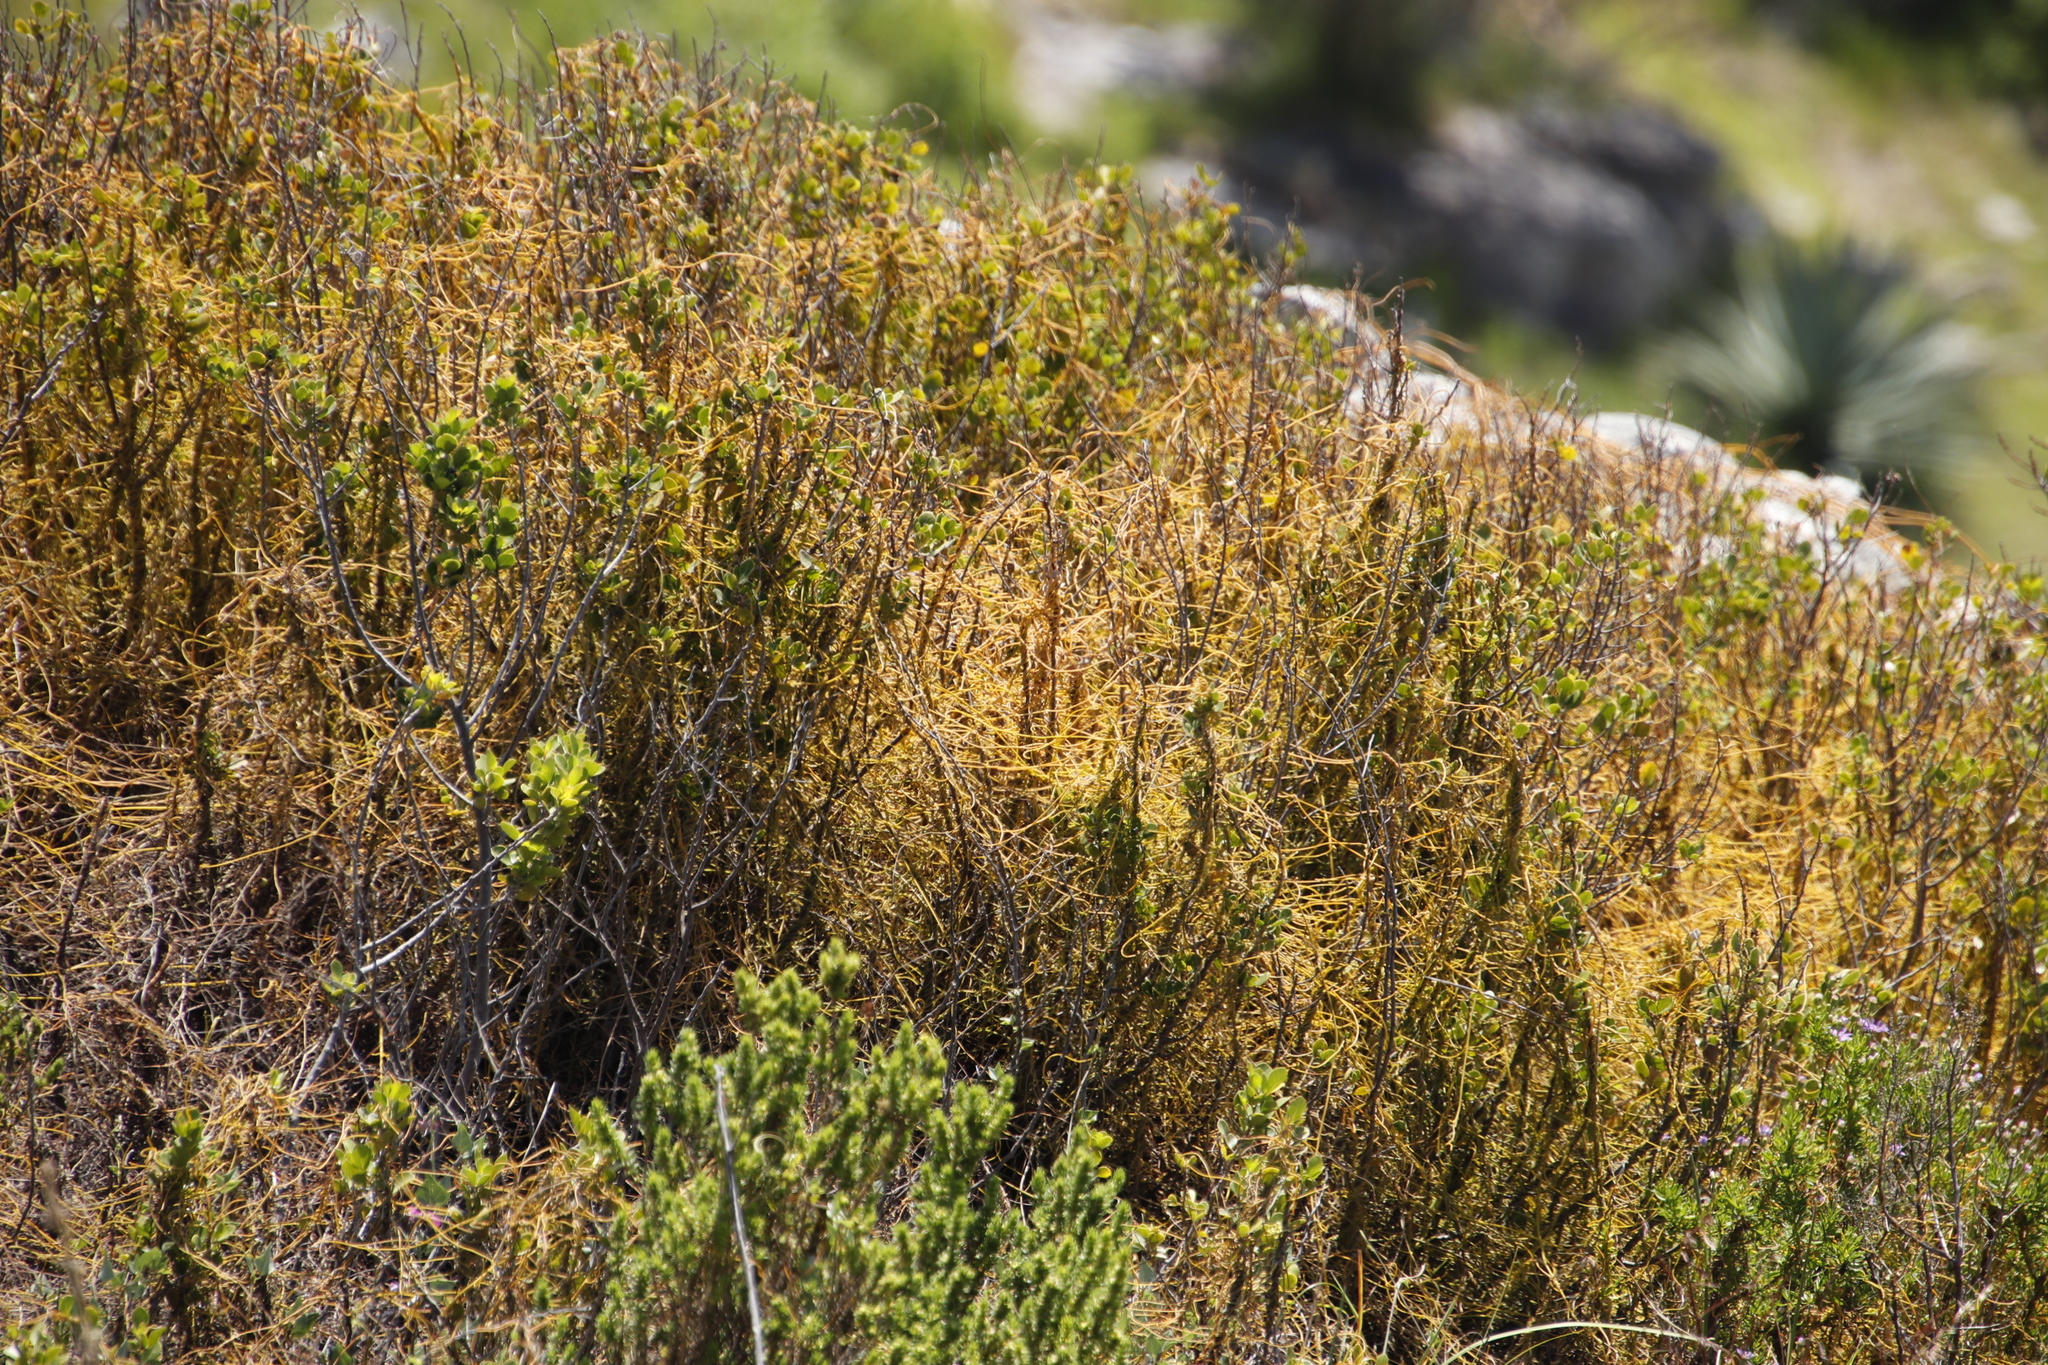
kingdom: Plantae
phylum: Tracheophyta
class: Magnoliopsida
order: Laurales
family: Lauraceae
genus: Cassytha
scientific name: Cassytha ciliolata
